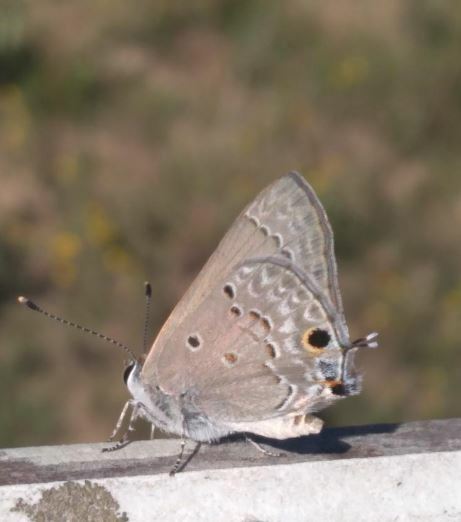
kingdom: Animalia
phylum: Arthropoda
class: Insecta
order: Lepidoptera
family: Lycaenidae
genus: Callicista
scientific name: Callicista columella
